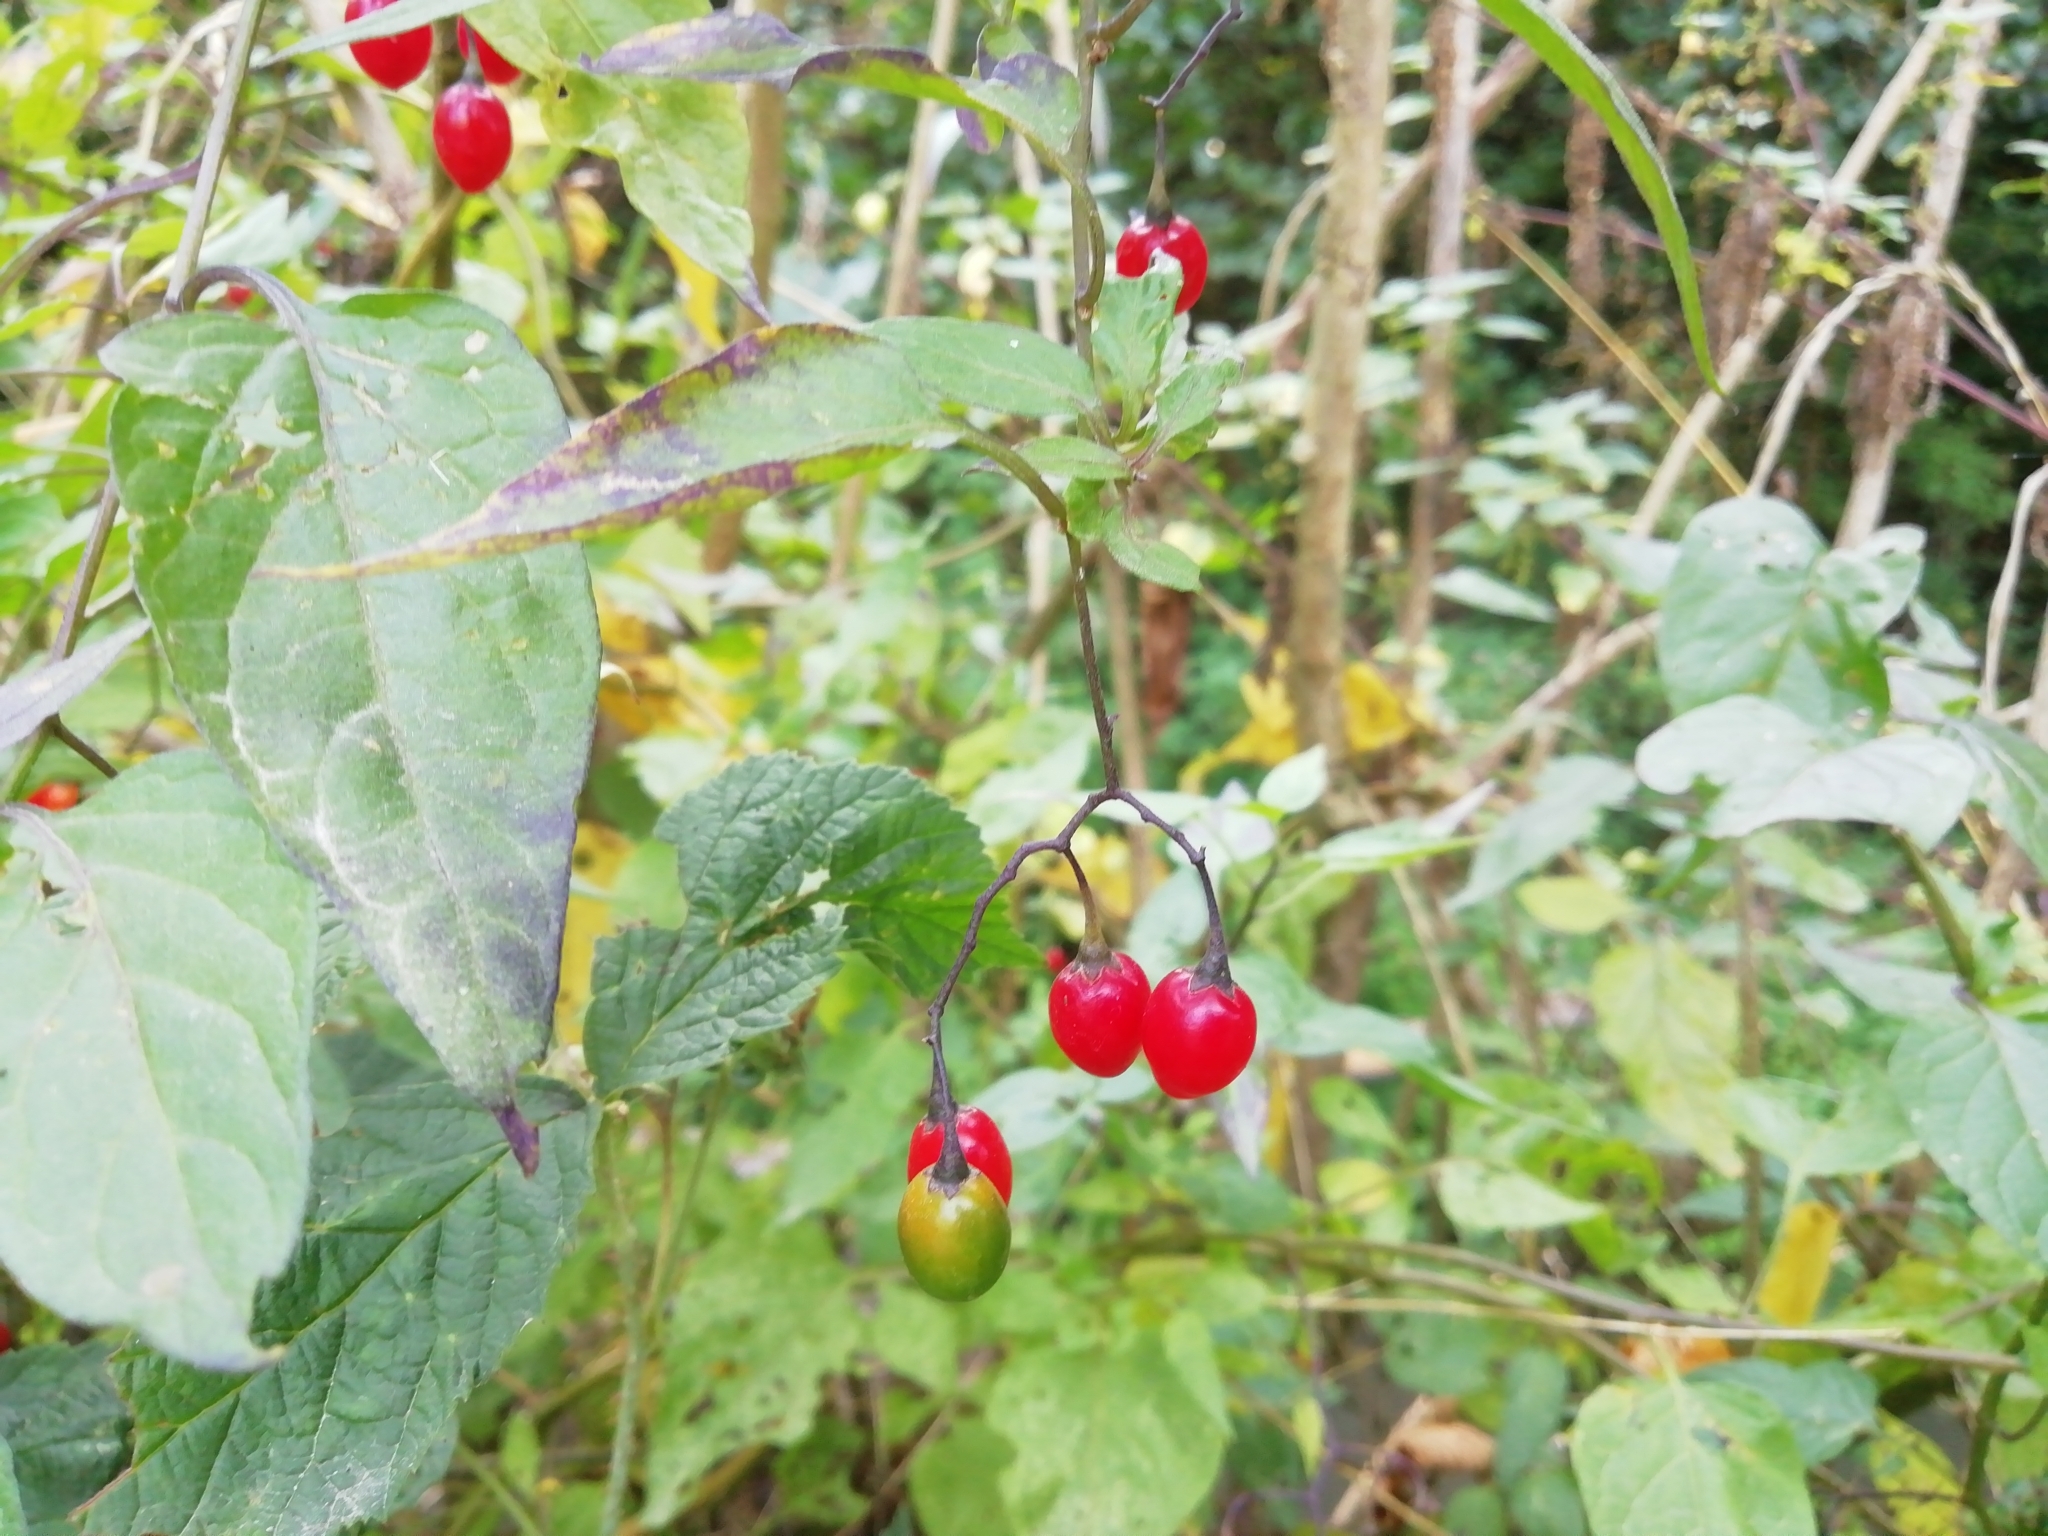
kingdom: Plantae
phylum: Tracheophyta
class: Magnoliopsida
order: Solanales
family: Solanaceae
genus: Solanum
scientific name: Solanum dulcamara
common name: Climbing nightshade
